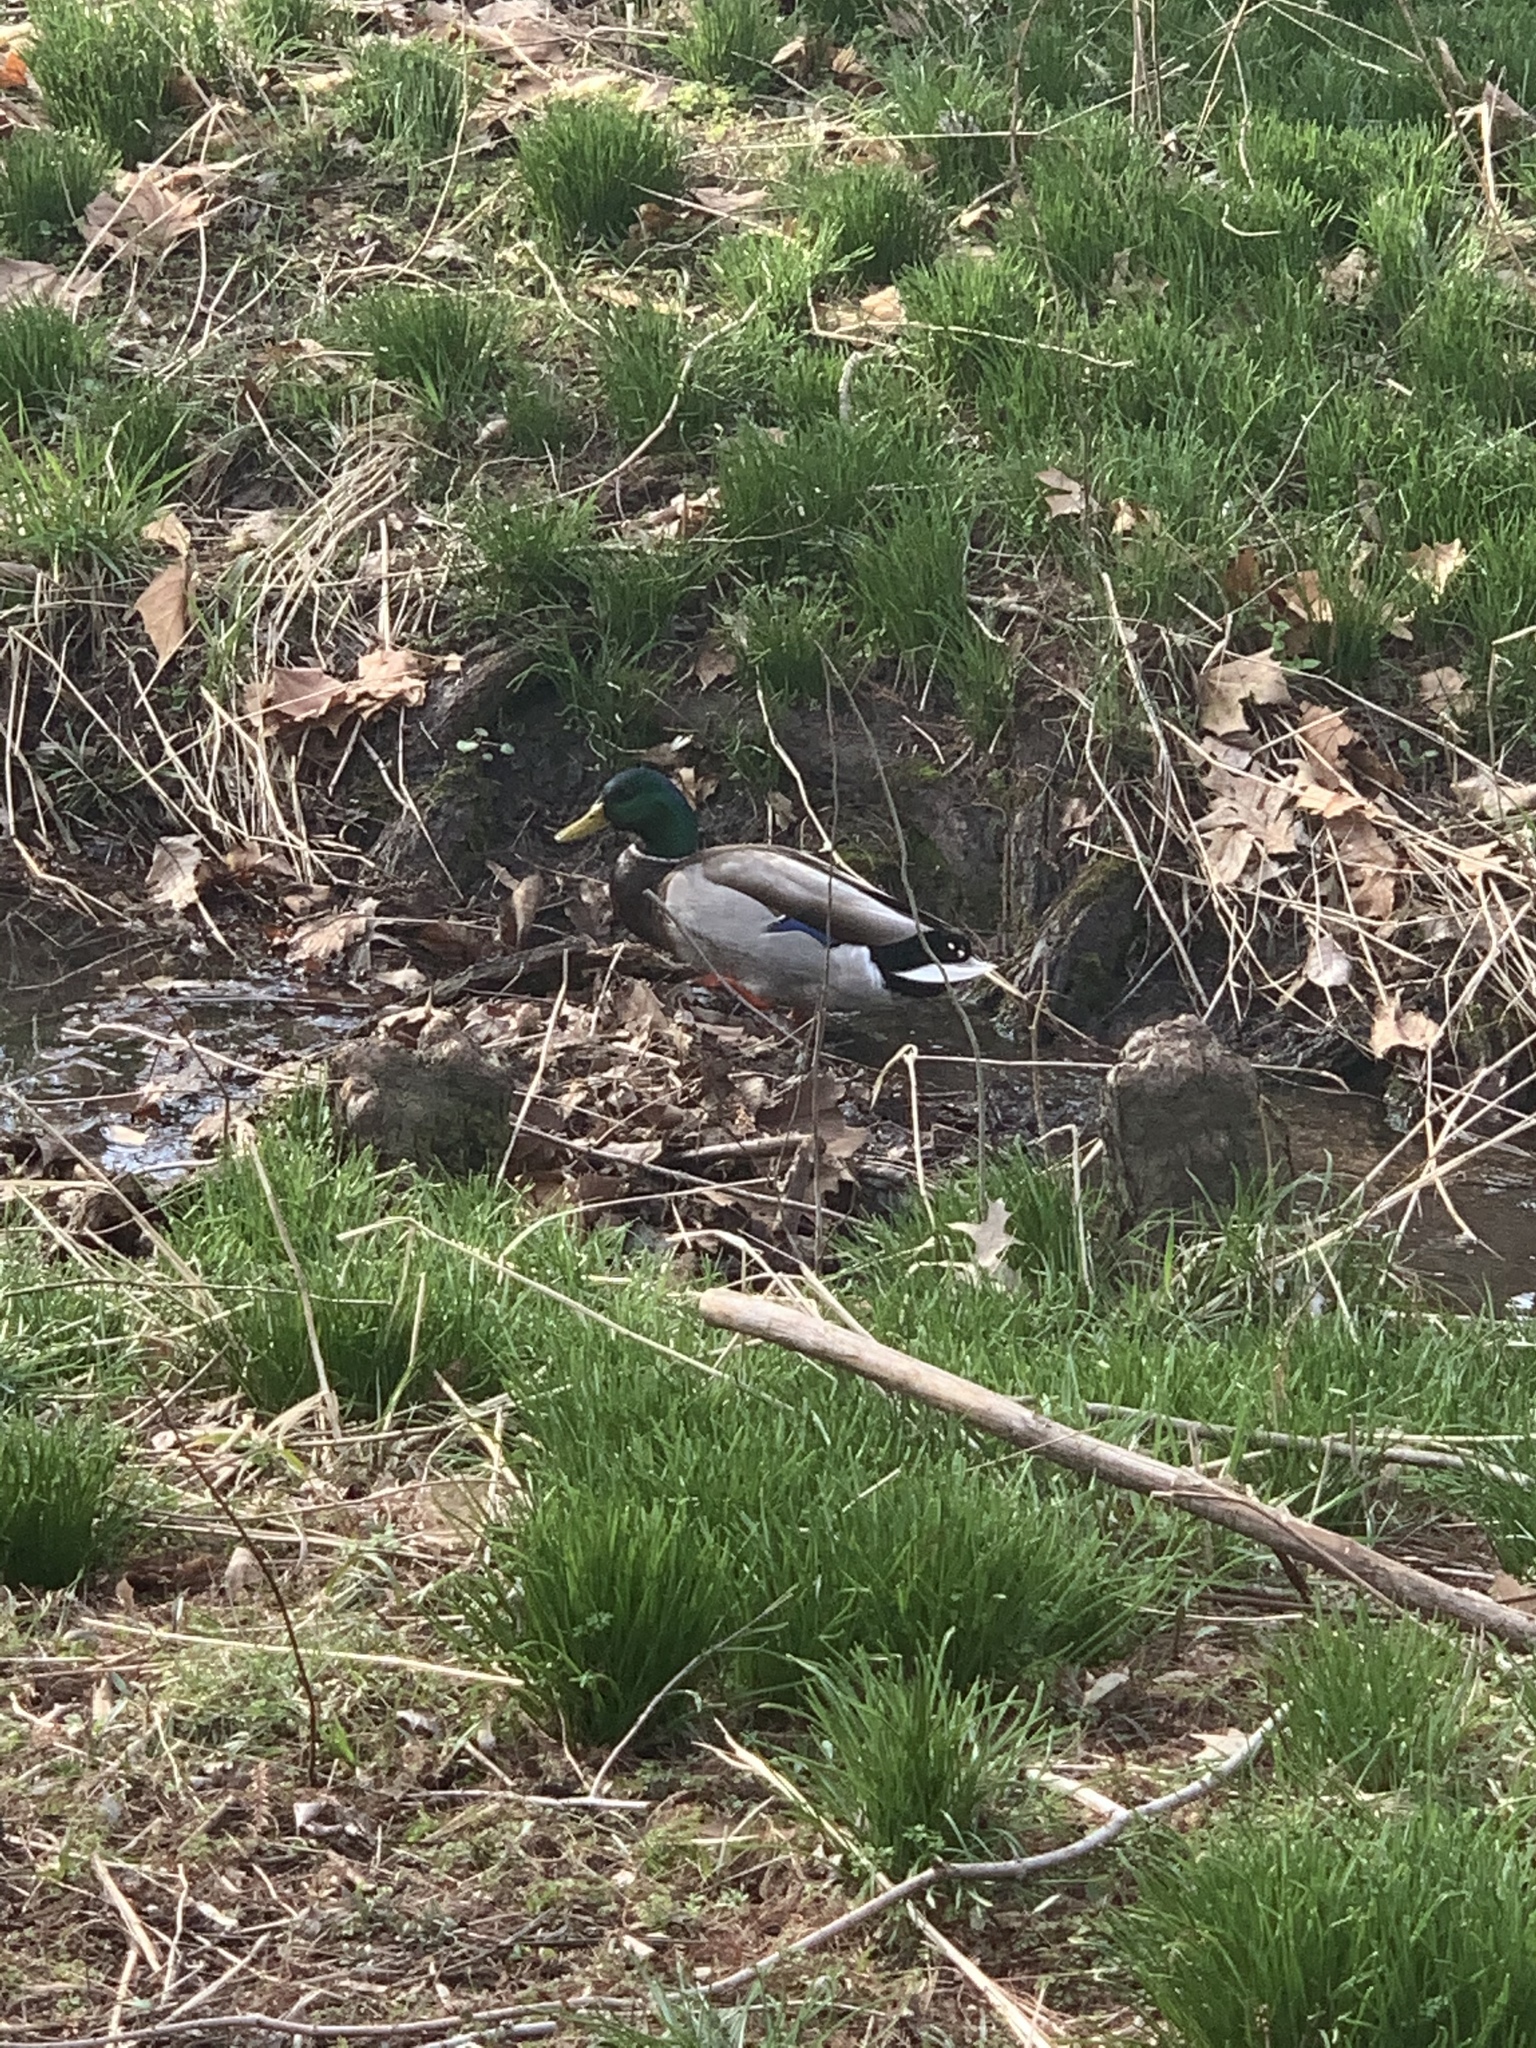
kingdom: Animalia
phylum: Chordata
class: Aves
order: Anseriformes
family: Anatidae
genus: Anas
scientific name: Anas platyrhynchos
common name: Mallard
